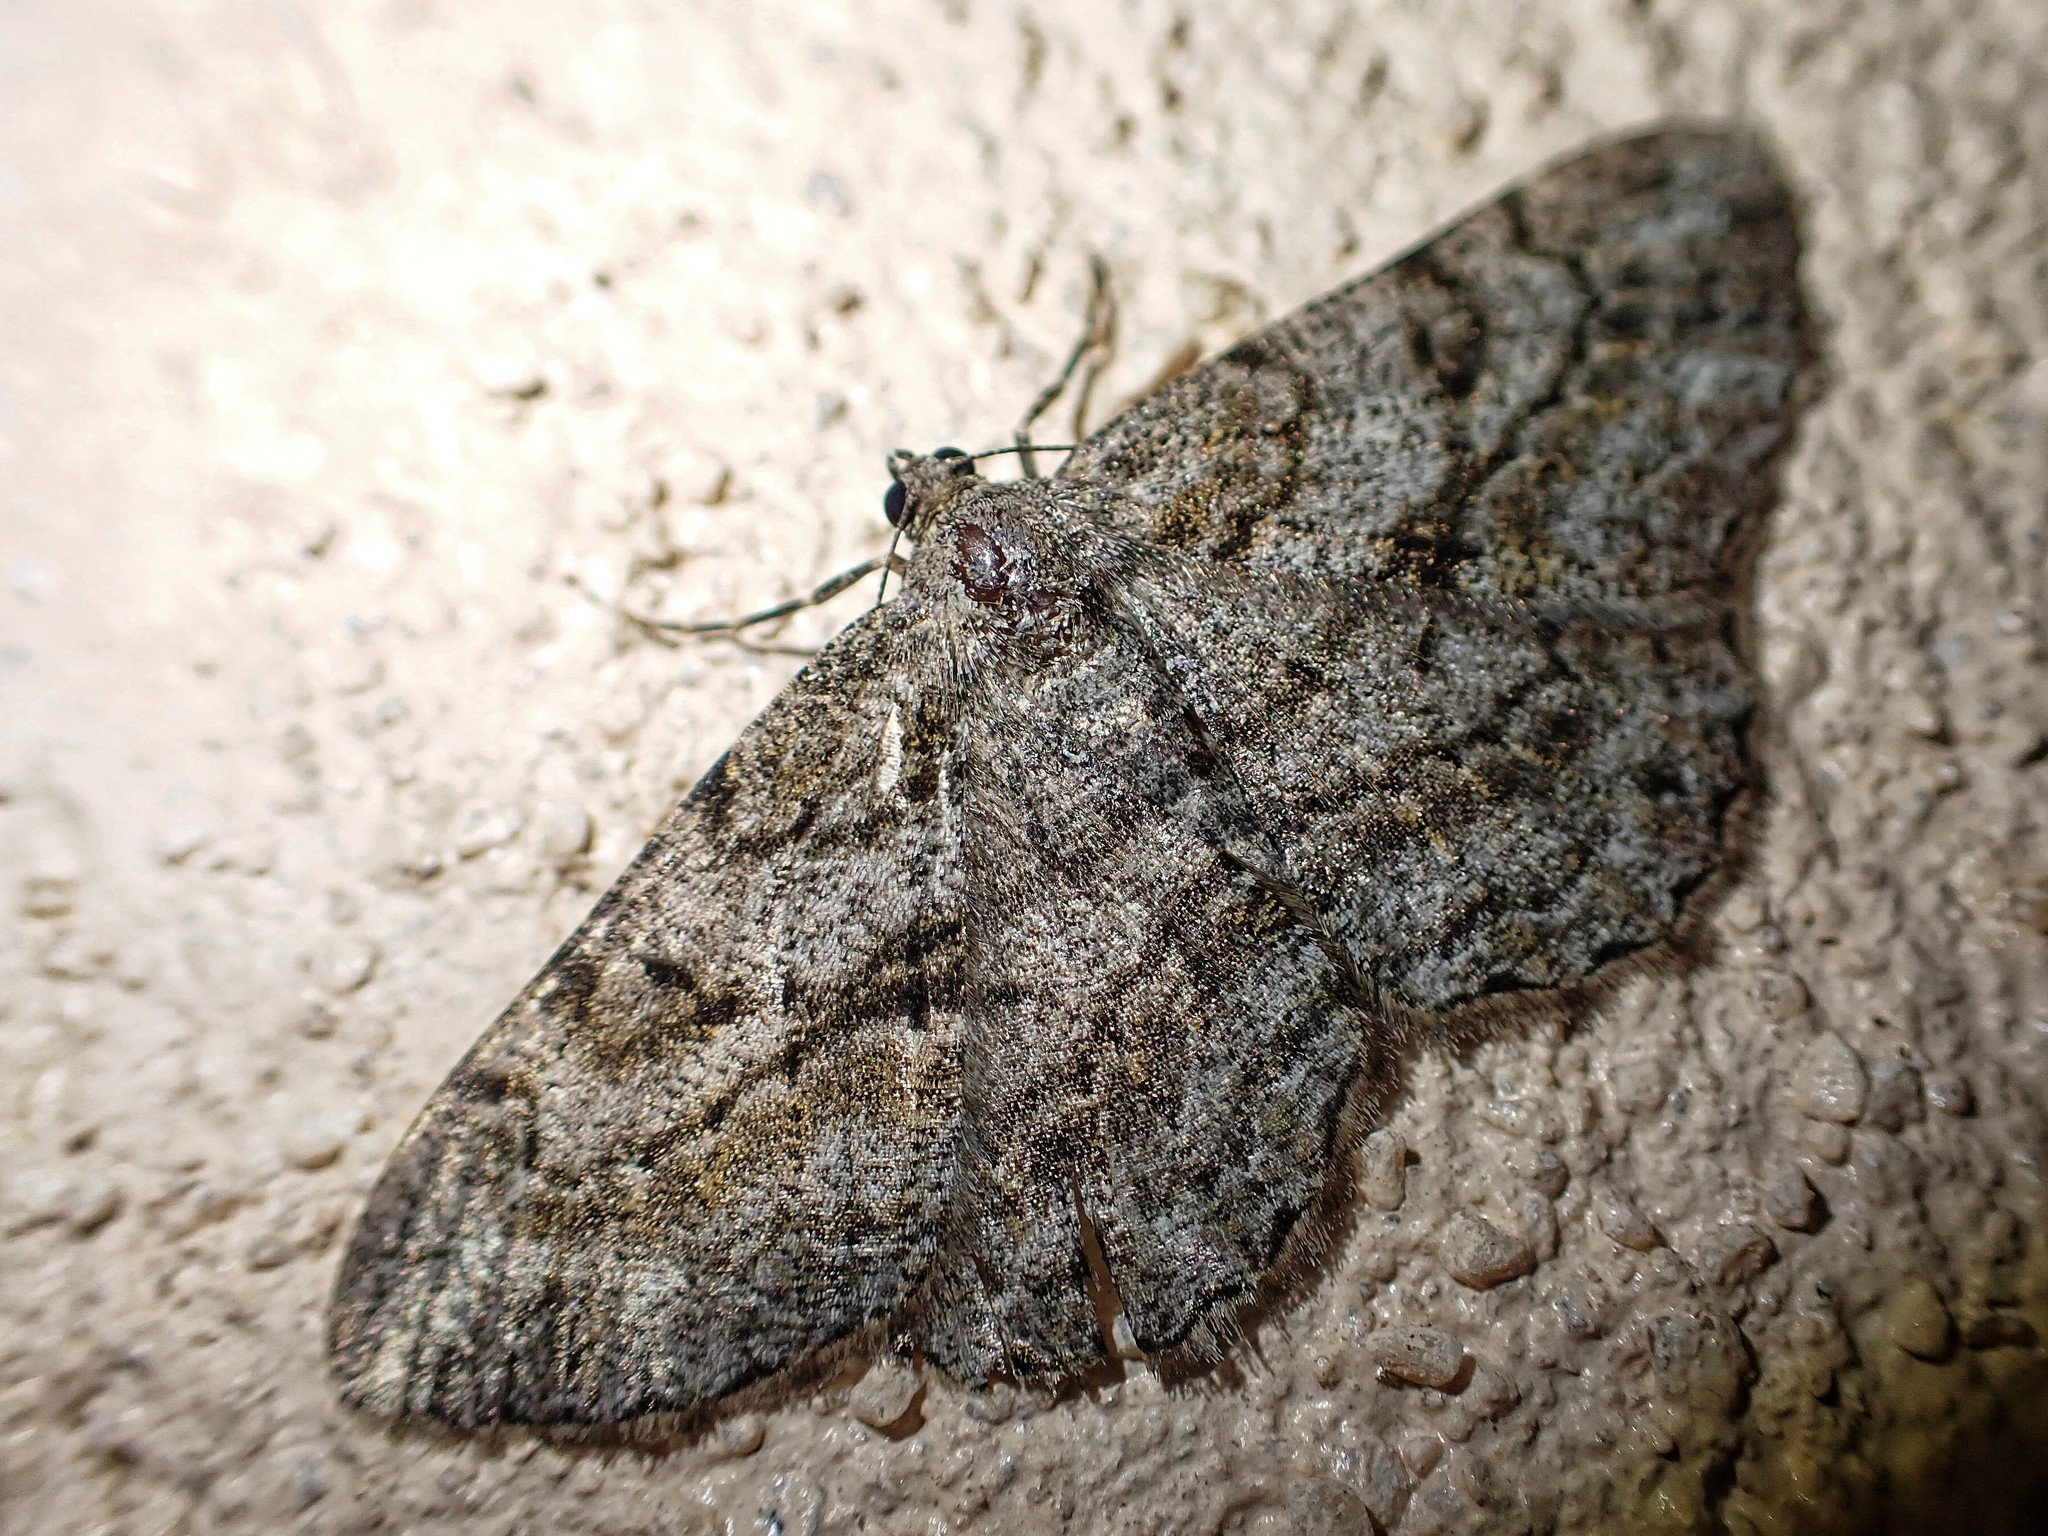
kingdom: Animalia
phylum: Arthropoda
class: Insecta
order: Lepidoptera
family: Geometridae
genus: Peribatodes
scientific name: Peribatodes rhomboidaria
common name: Willow beauty
